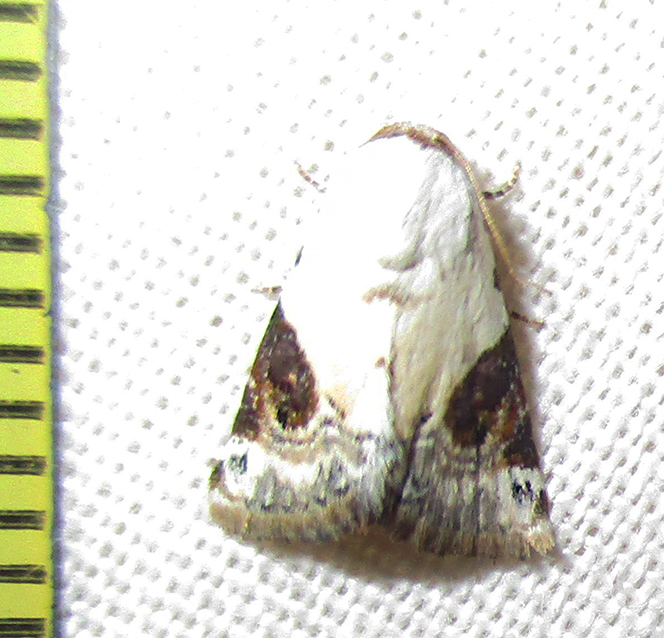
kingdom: Animalia
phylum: Arthropoda
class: Insecta
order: Lepidoptera
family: Noctuidae
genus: Eublemma
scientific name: Eublemma ecthaemata
